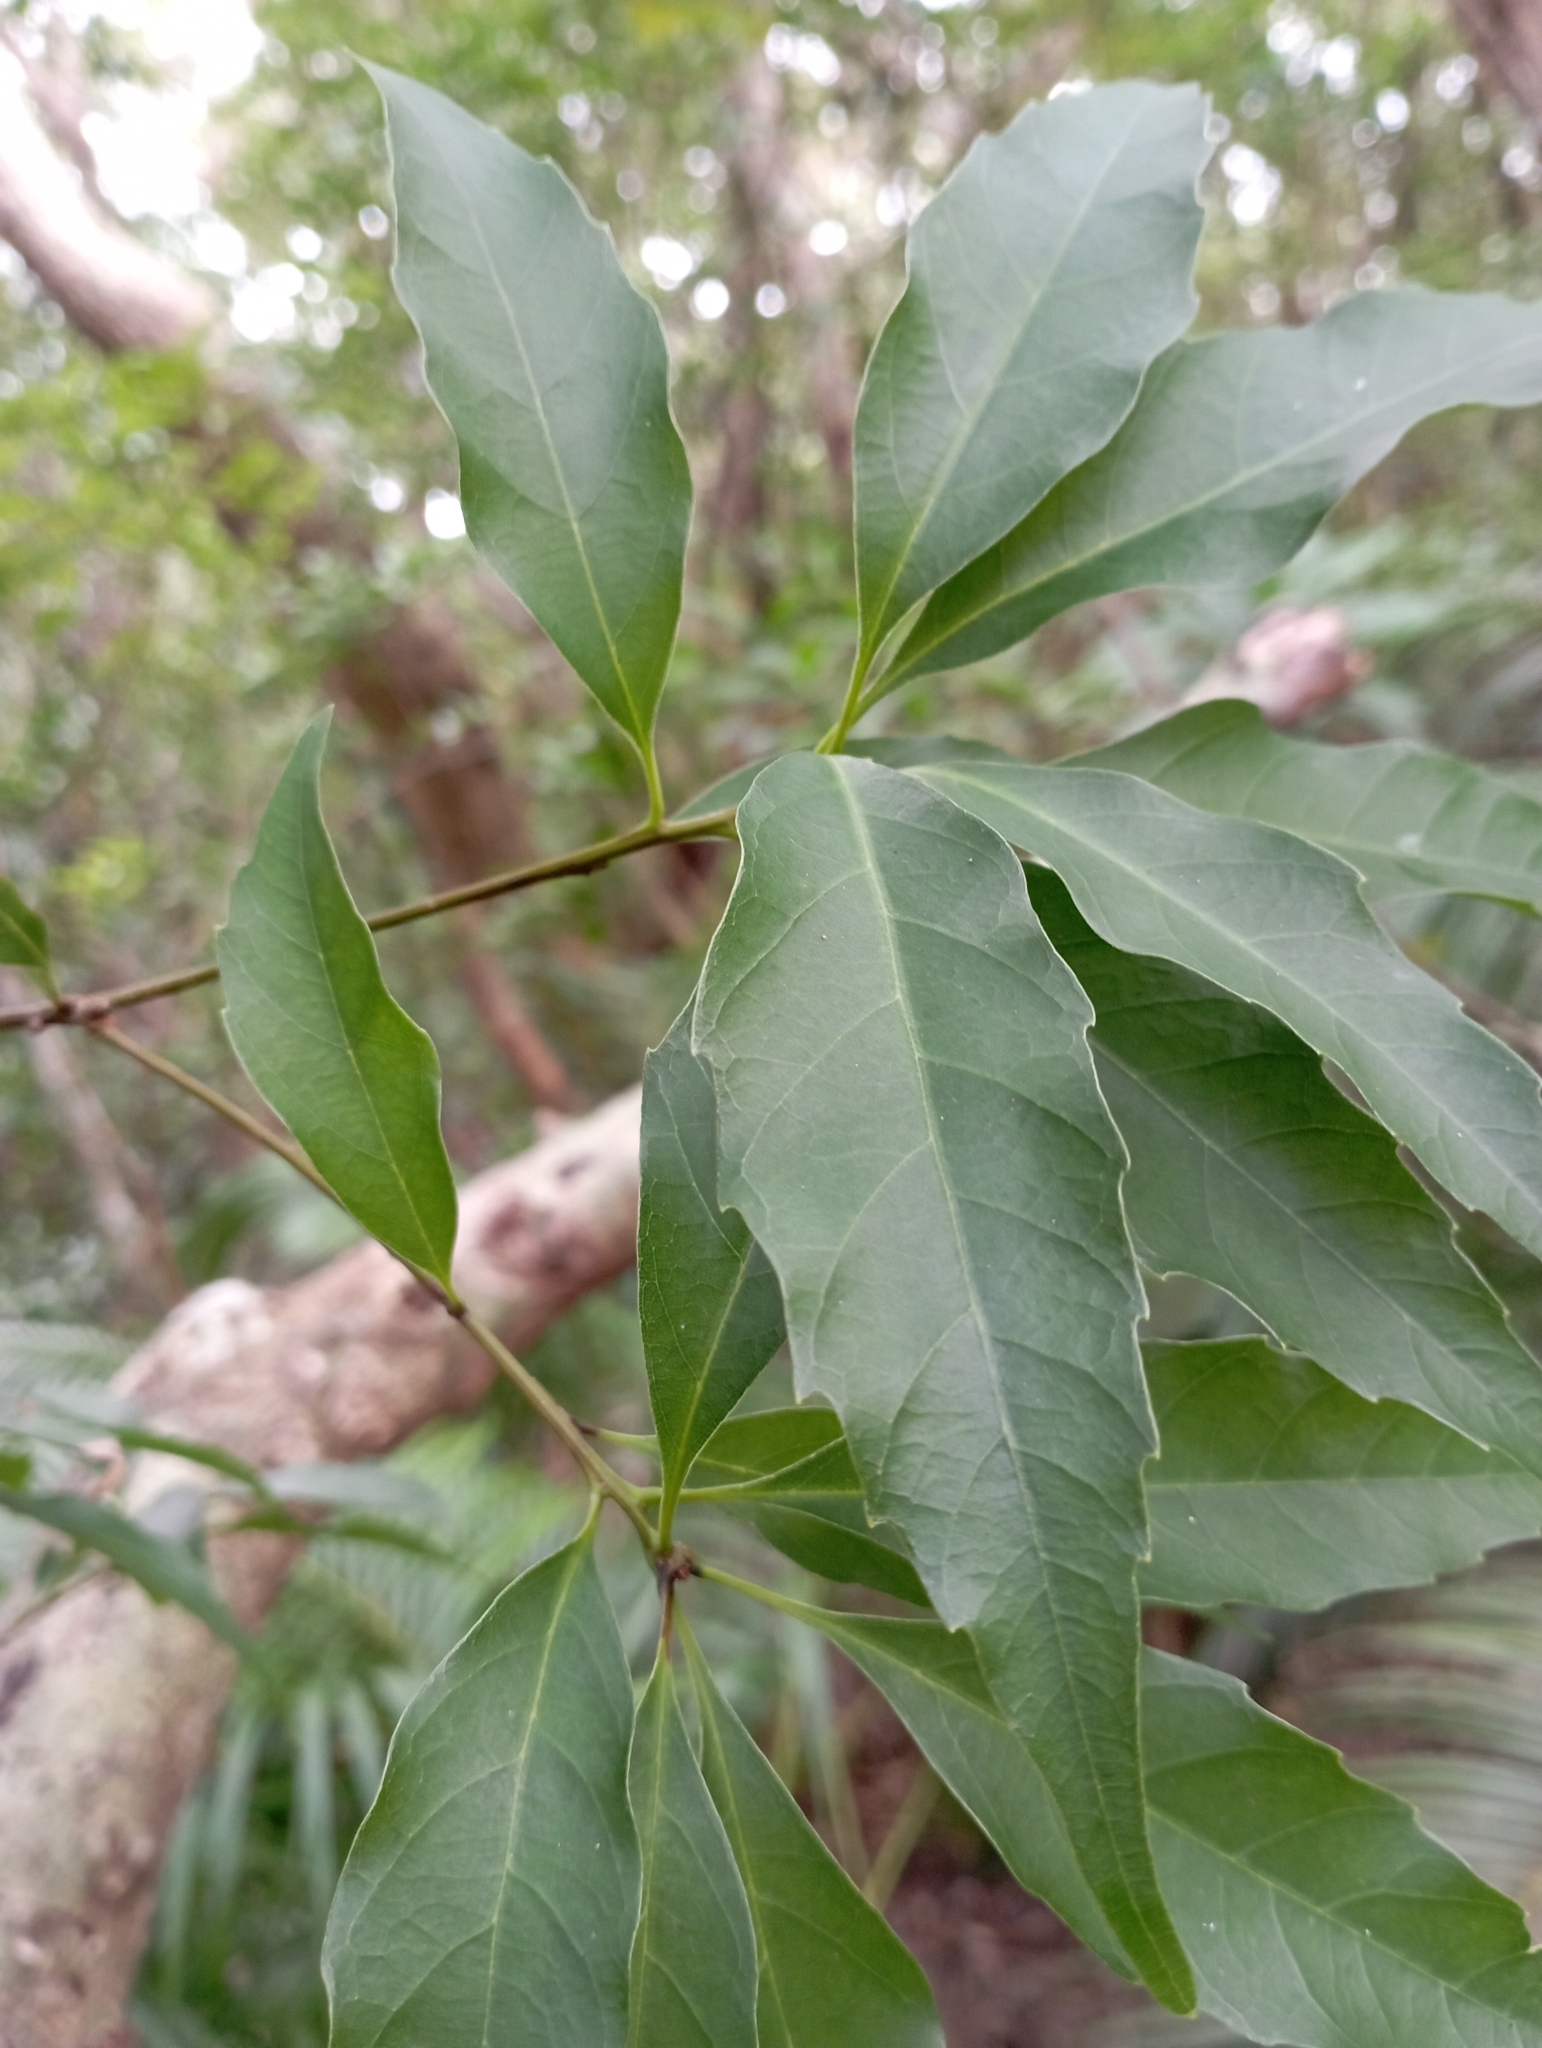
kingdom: Plantae
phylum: Tracheophyta
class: Magnoliopsida
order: Fagales
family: Fagaceae
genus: Quercus
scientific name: Quercus longinux
